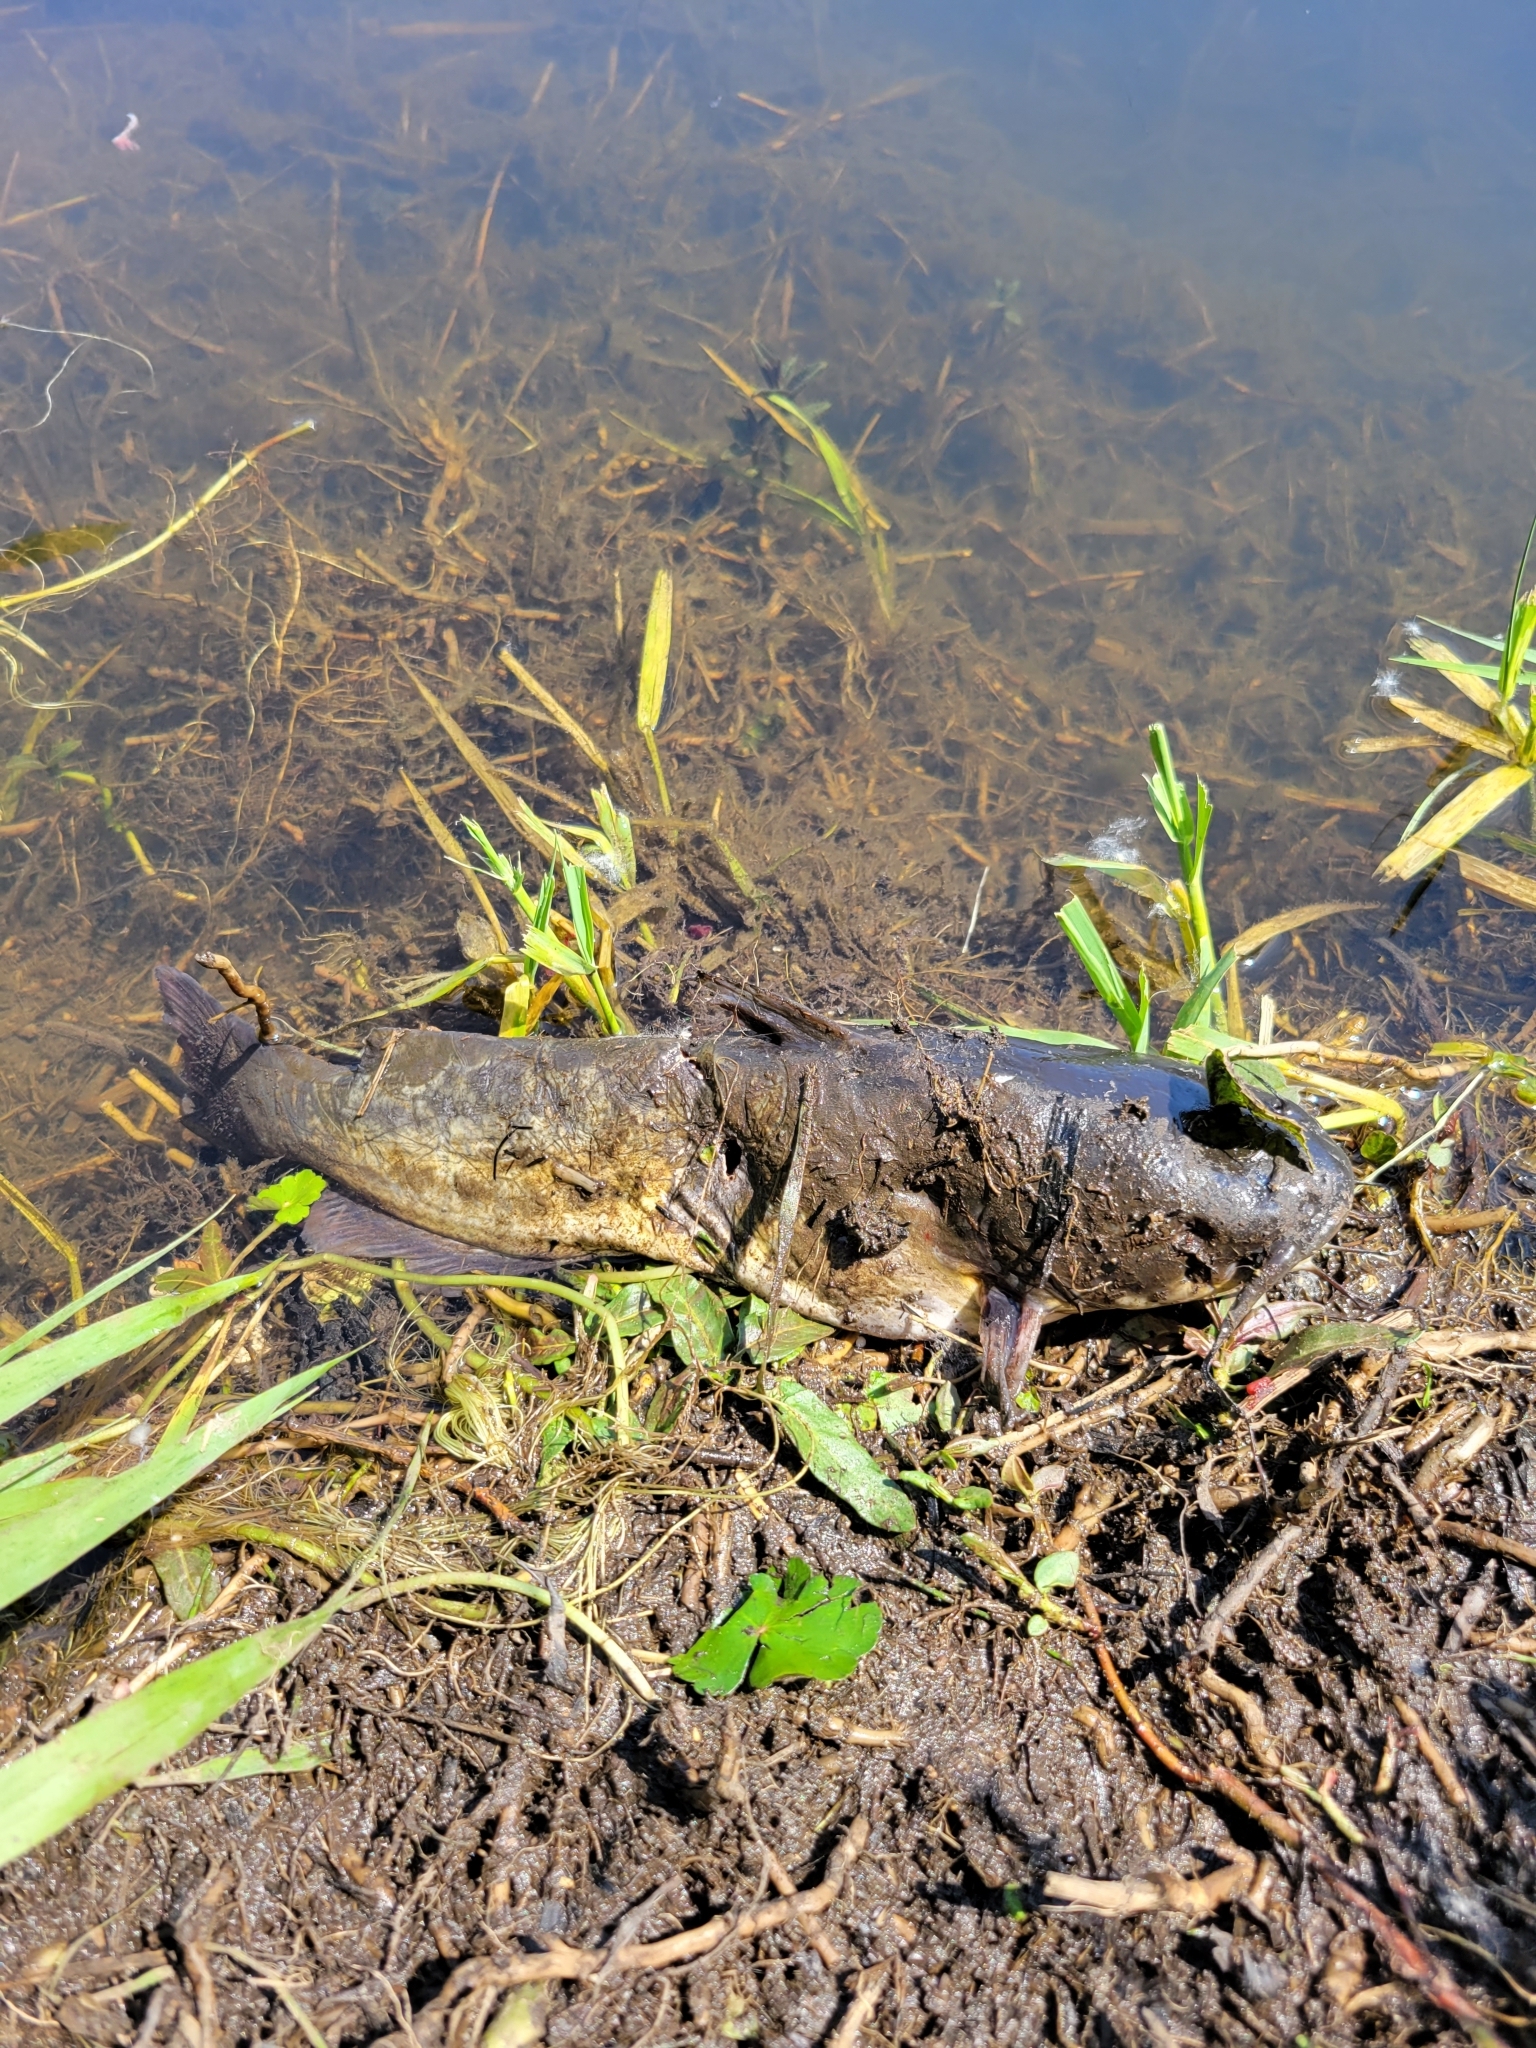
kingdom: Animalia
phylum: Chordata
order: Siluriformes
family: Ictaluridae
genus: Ameiurus
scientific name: Ameiurus nebulosus
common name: Brown bullhead
